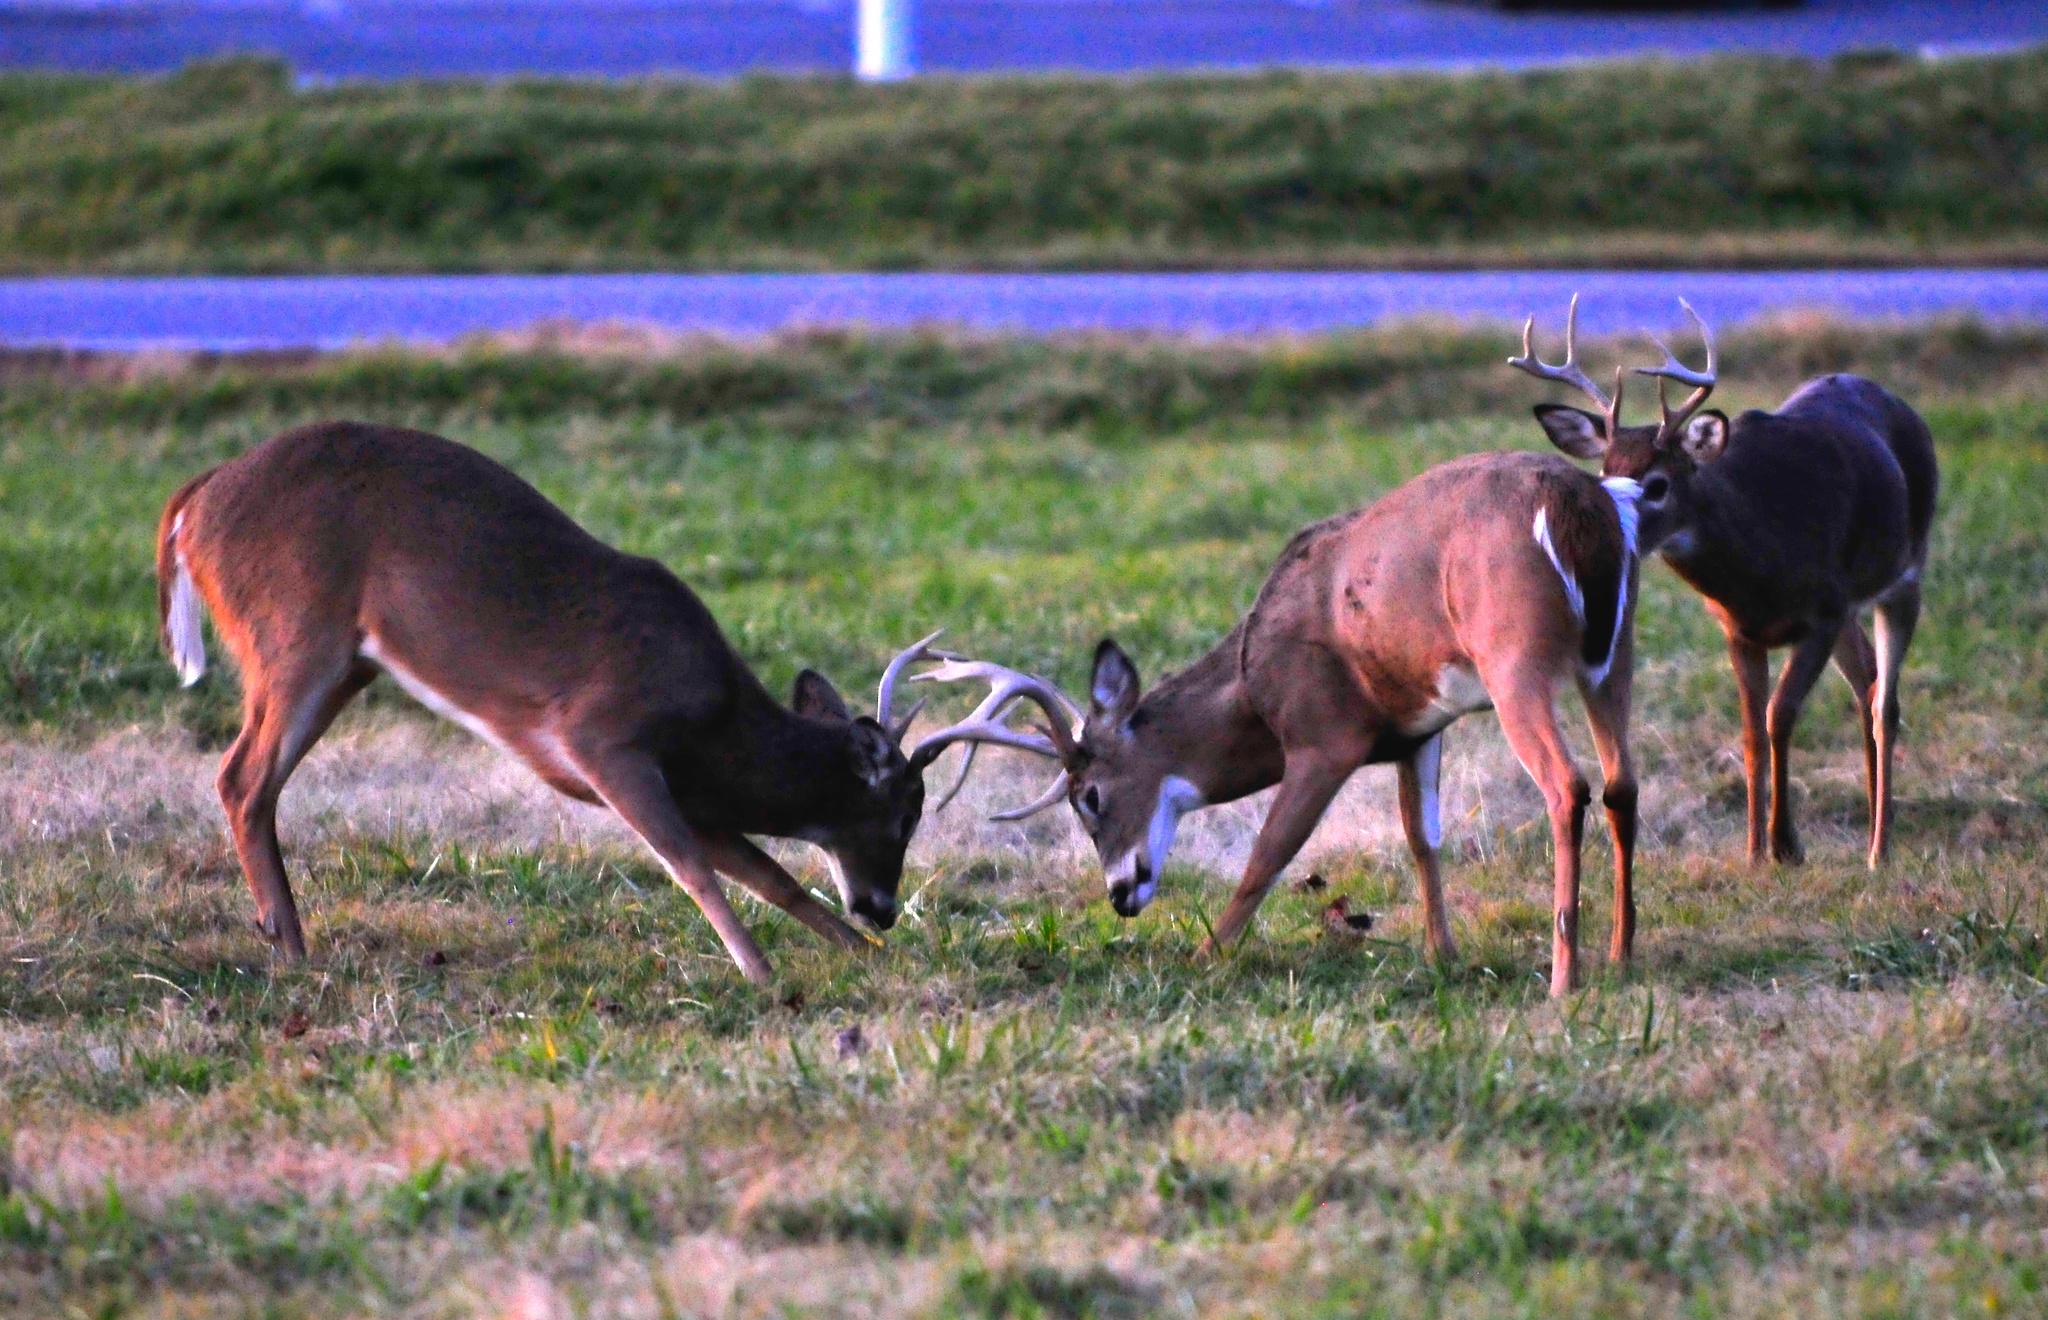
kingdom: Animalia
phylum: Chordata
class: Mammalia
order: Artiodactyla
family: Cervidae
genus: Odocoileus
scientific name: Odocoileus virginianus
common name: White-tailed deer
